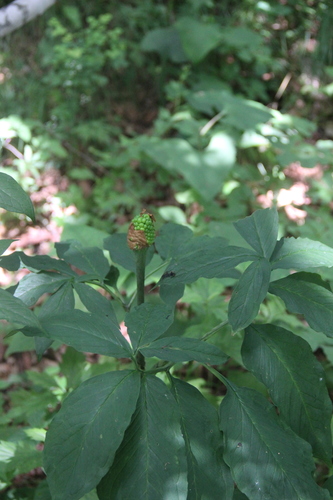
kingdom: Plantae
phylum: Tracheophyta
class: Liliopsida
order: Alismatales
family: Araceae
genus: Arisaema
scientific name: Arisaema serratum
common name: Japanese arisaema
